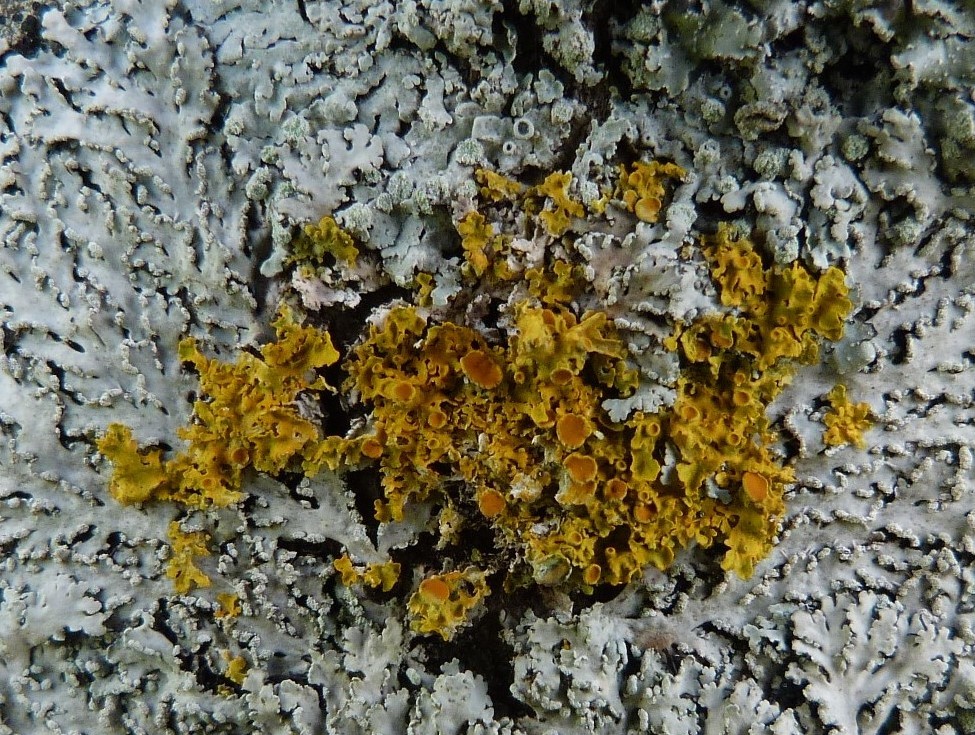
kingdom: Fungi
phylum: Ascomycota
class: Lecanoromycetes
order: Teloschistales
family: Teloschistaceae
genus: Xanthoria
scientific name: Xanthoria parietina
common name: Common orange lichen
